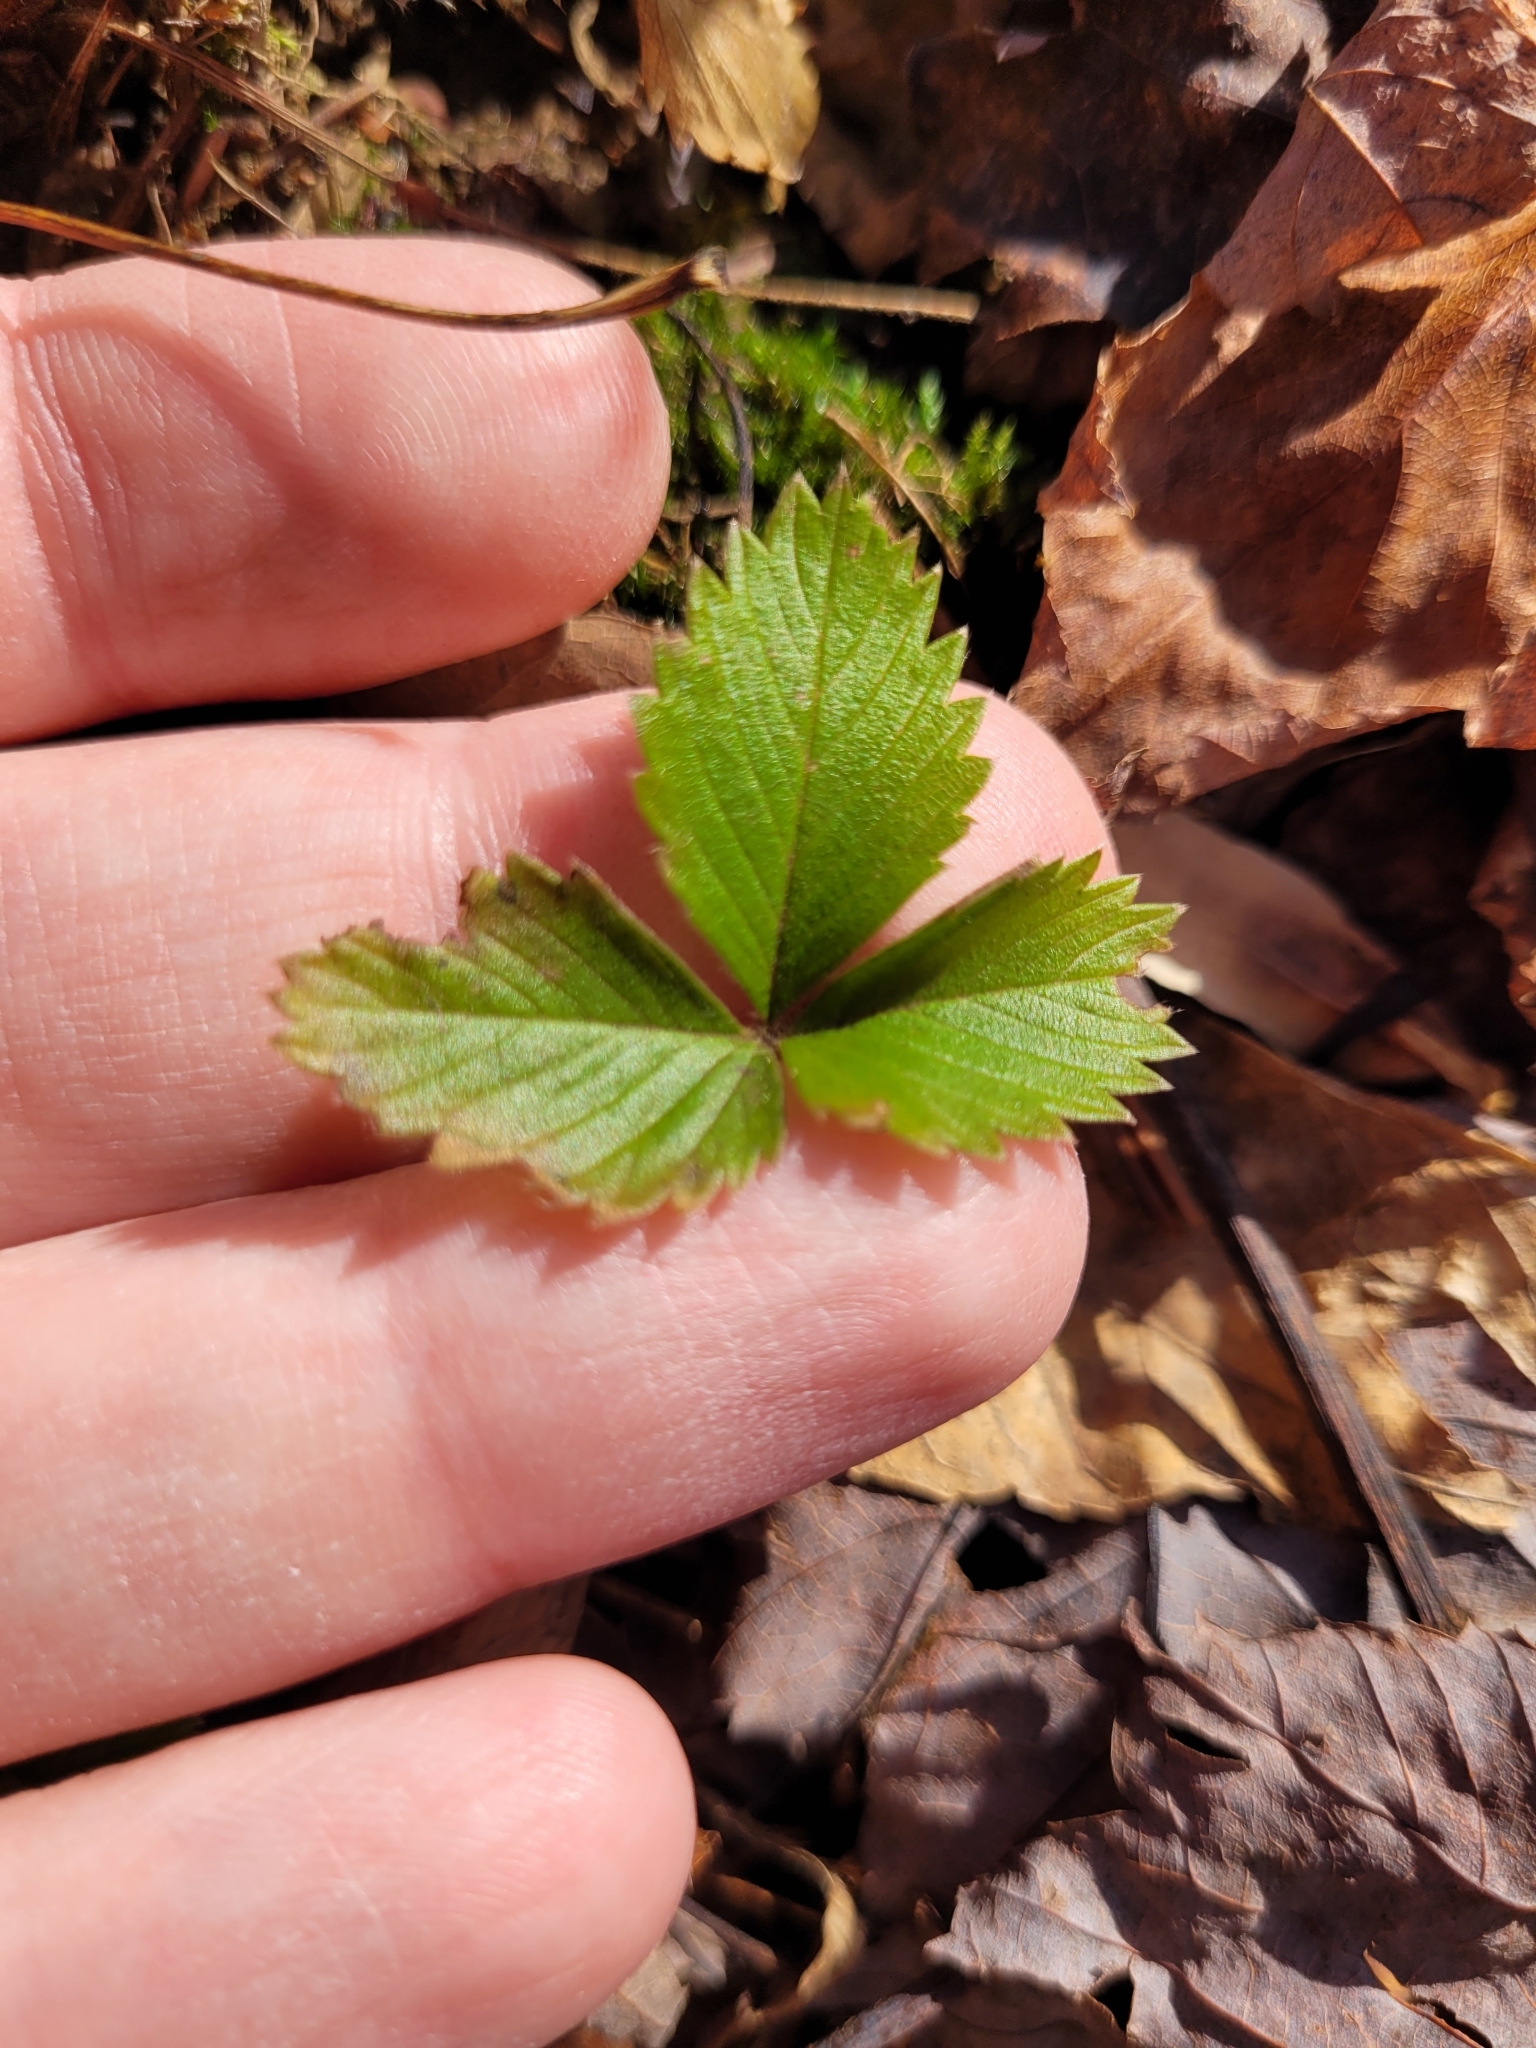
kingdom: Plantae
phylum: Tracheophyta
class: Magnoliopsida
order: Rosales
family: Rosaceae
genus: Fragaria
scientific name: Fragaria vesca
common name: Wild strawberry
